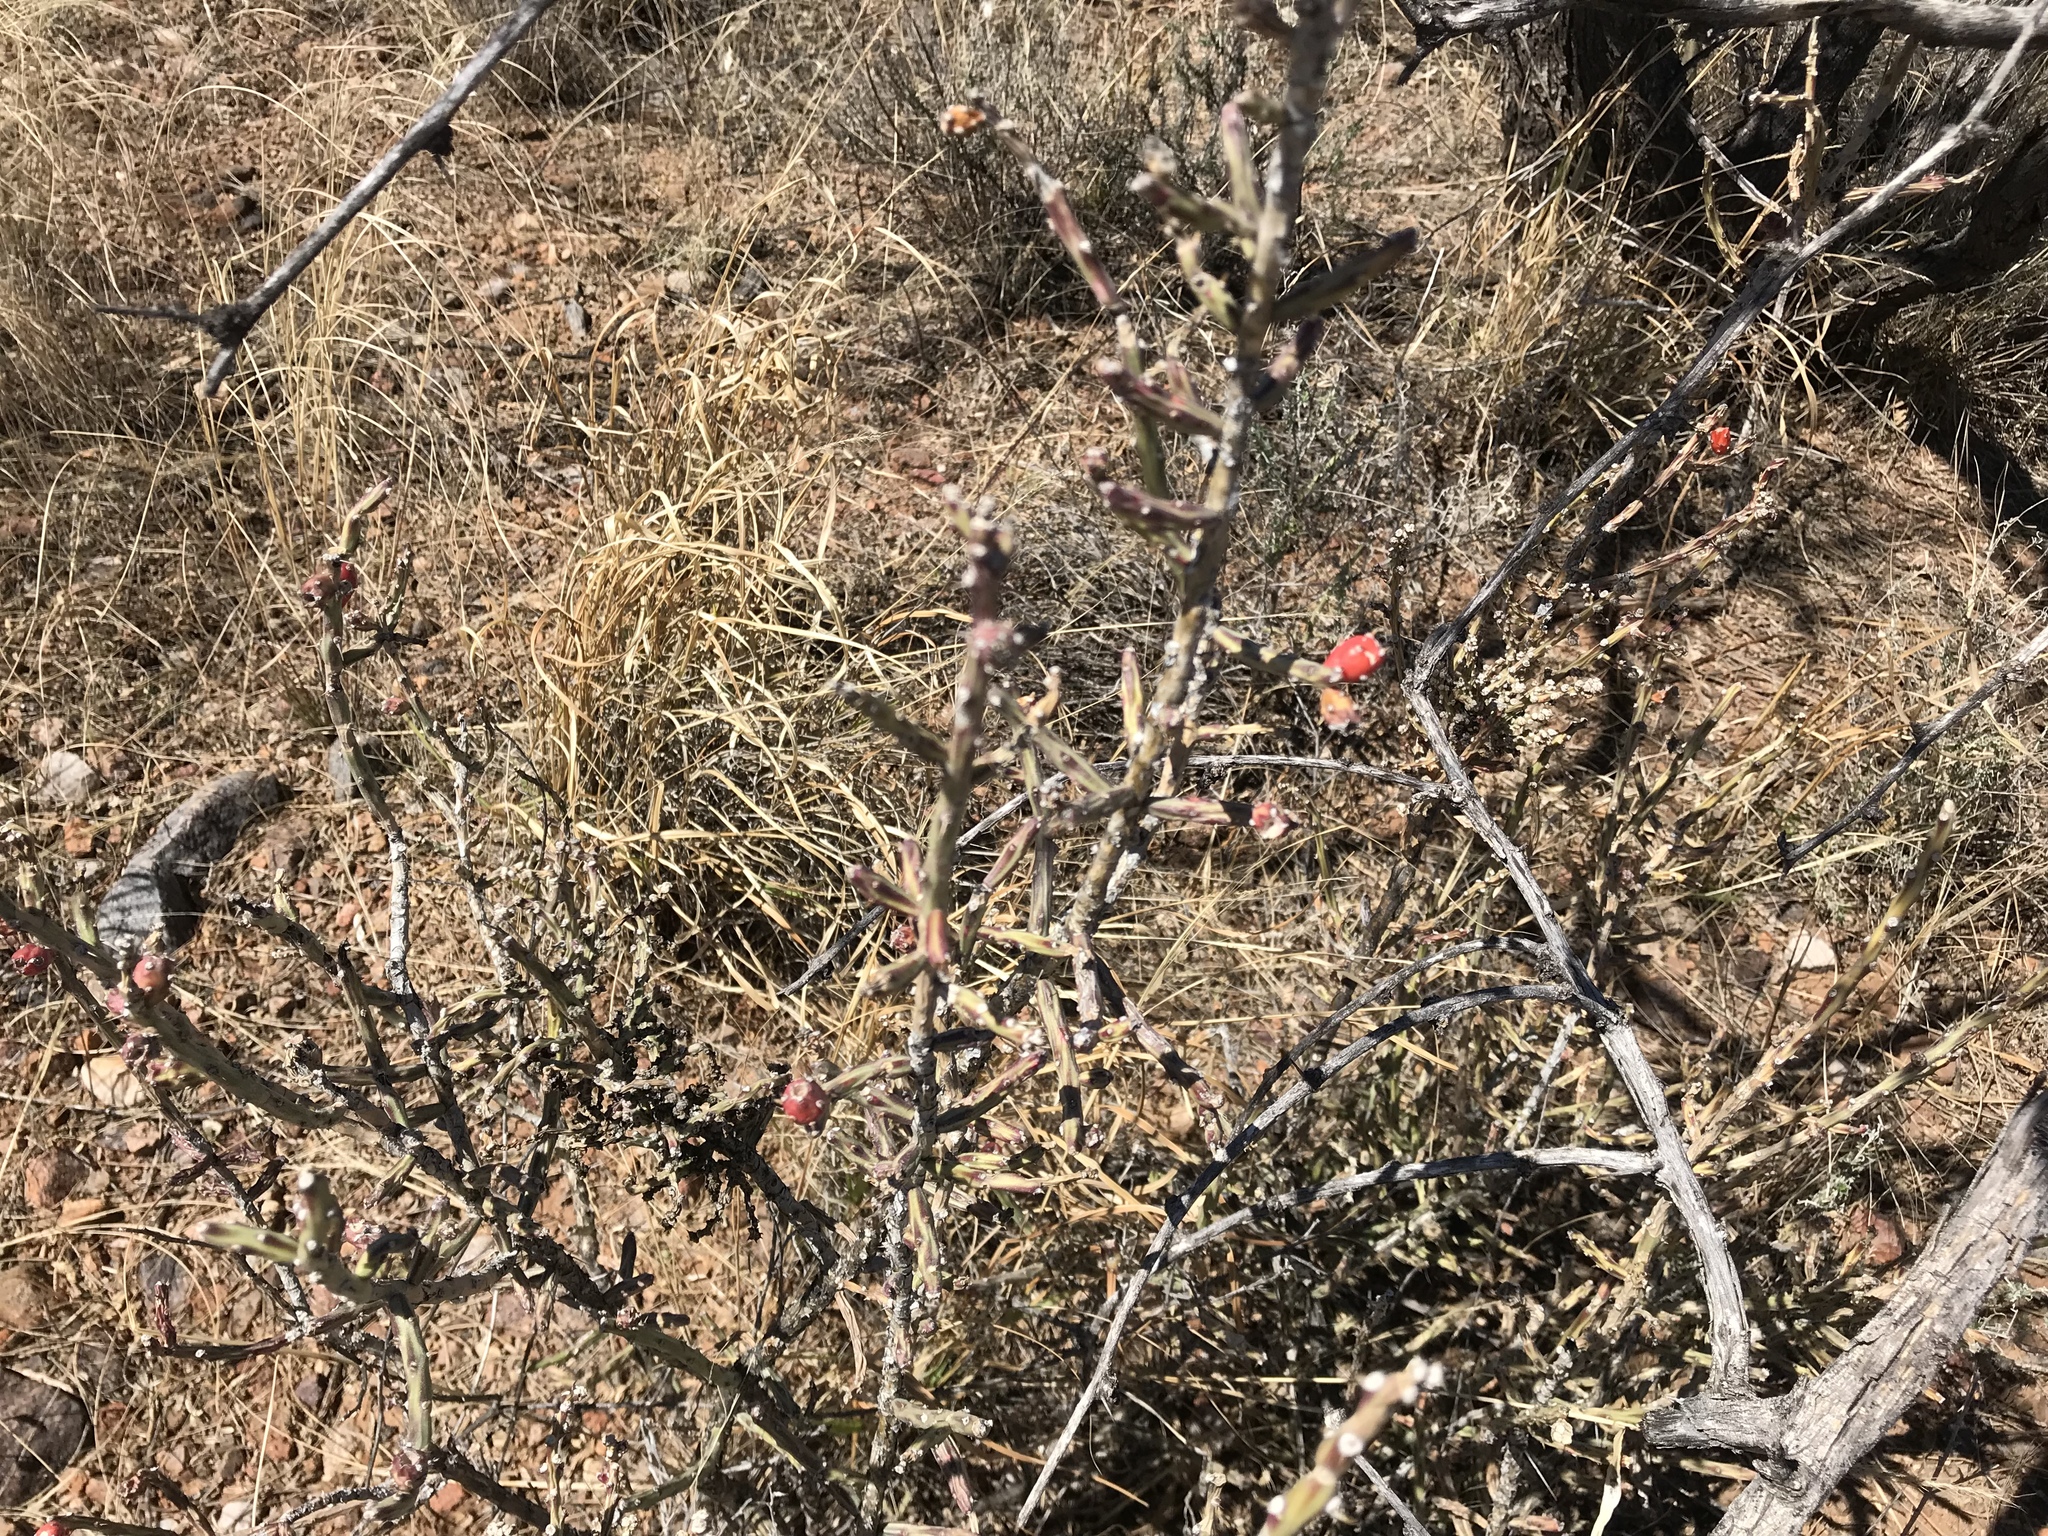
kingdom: Plantae
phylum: Tracheophyta
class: Magnoliopsida
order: Caryophyllales
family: Cactaceae
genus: Cylindropuntia
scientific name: Cylindropuntia leptocaulis
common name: Christmas cactus
